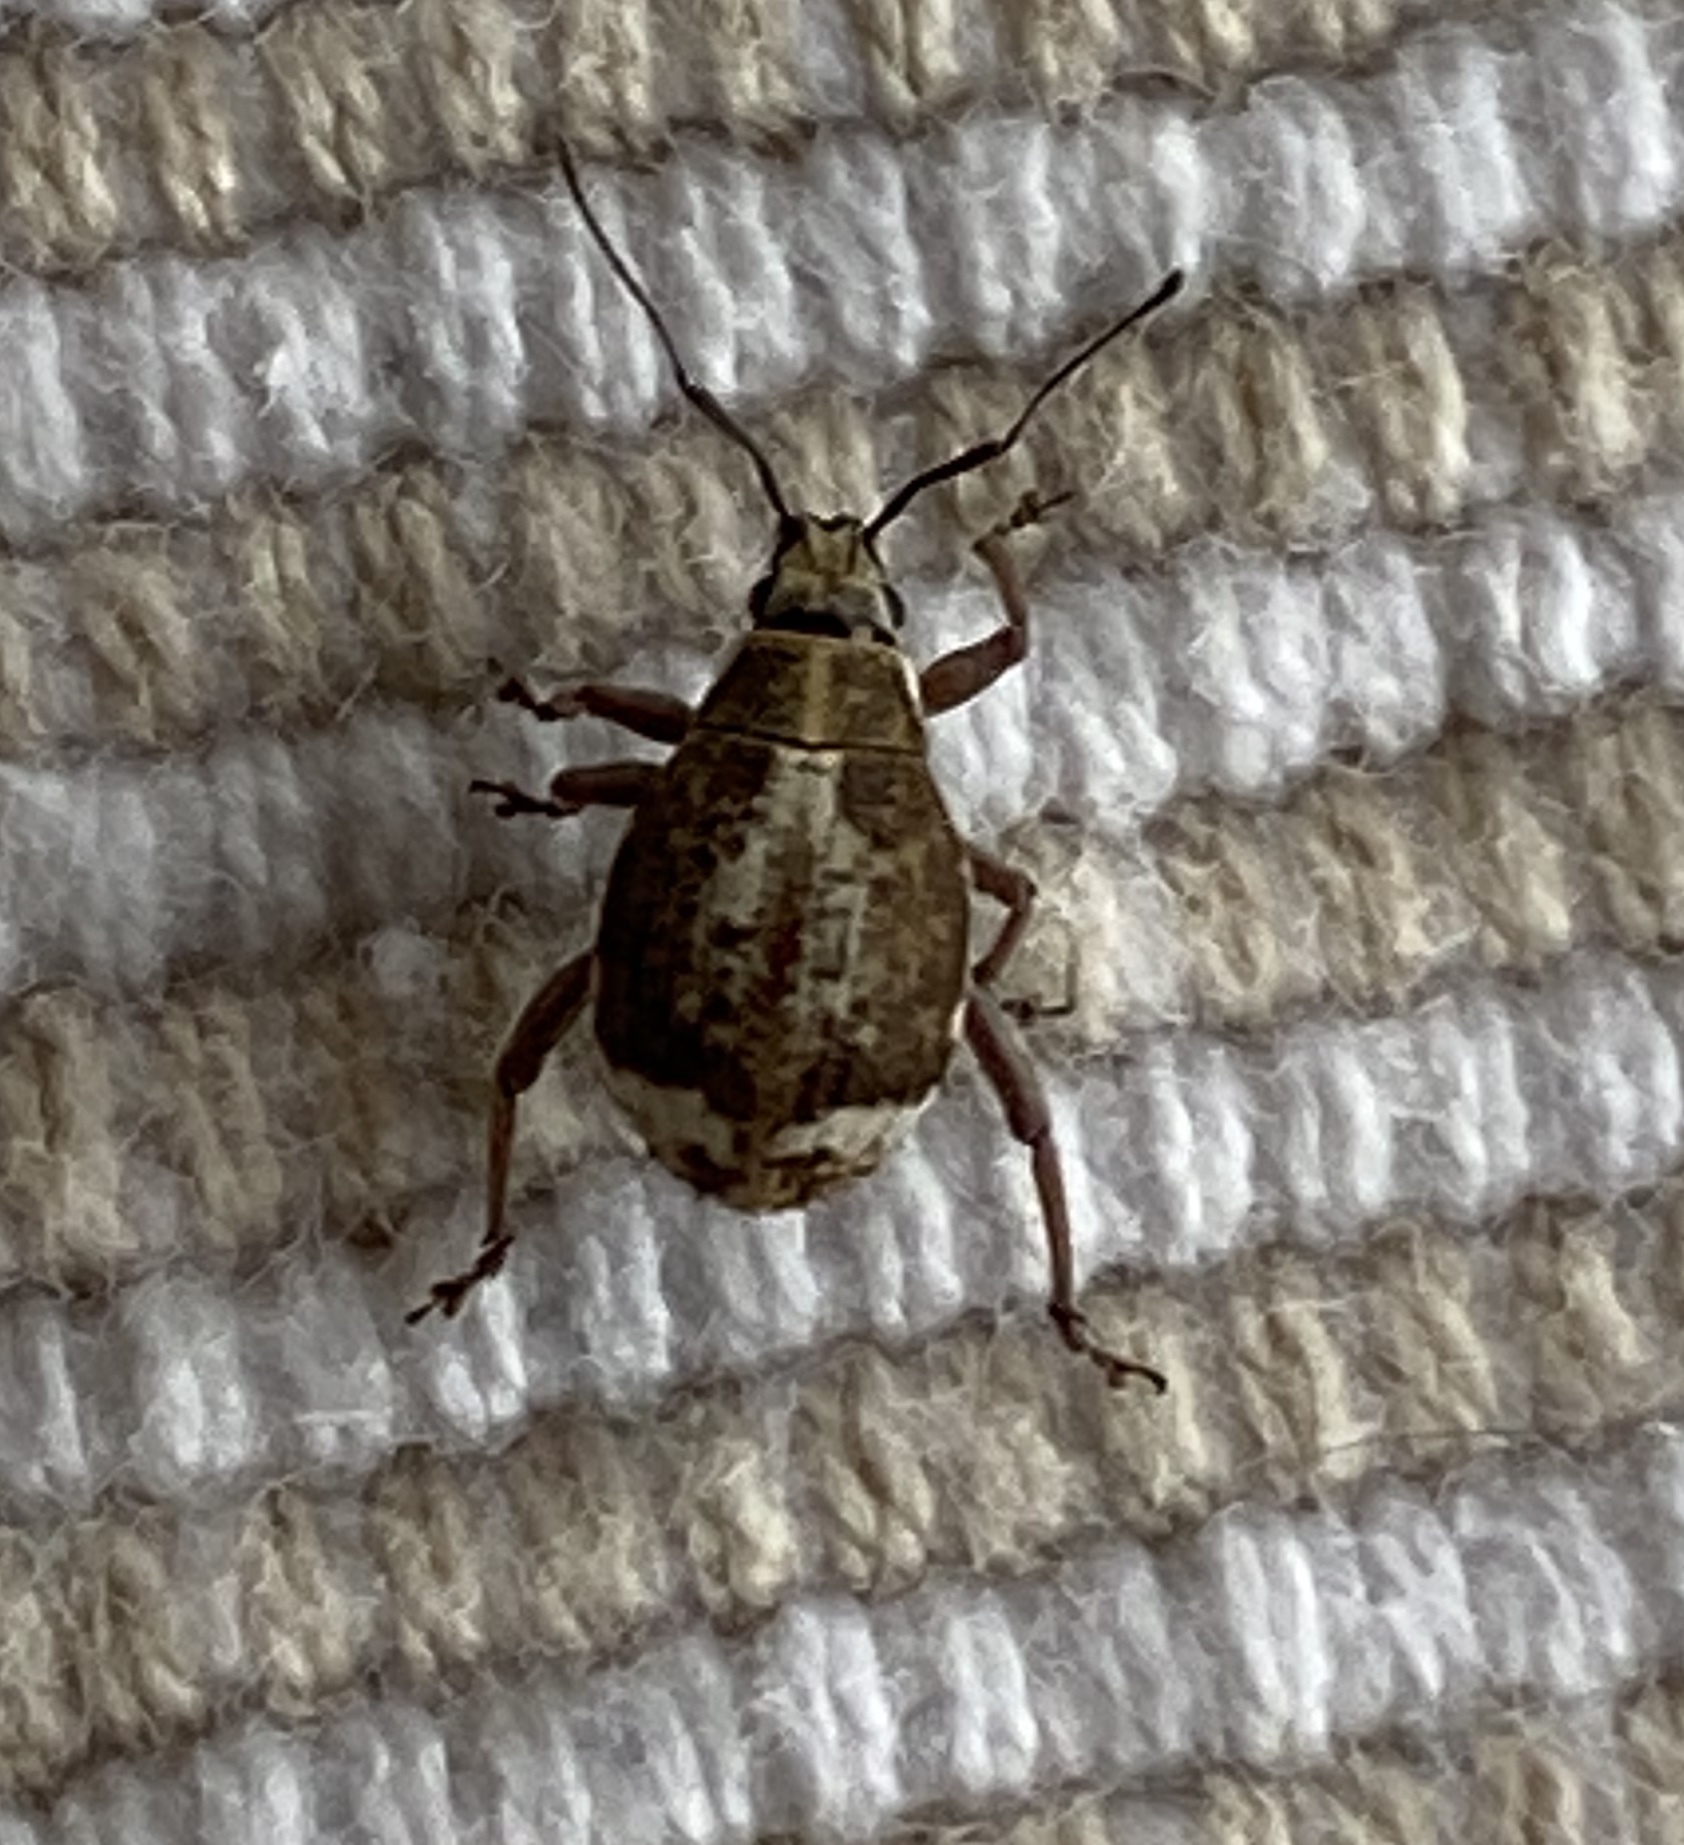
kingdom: Animalia
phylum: Arthropoda
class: Insecta
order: Coleoptera
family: Curculionidae
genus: Sciobius
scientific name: Sciobius pullus
